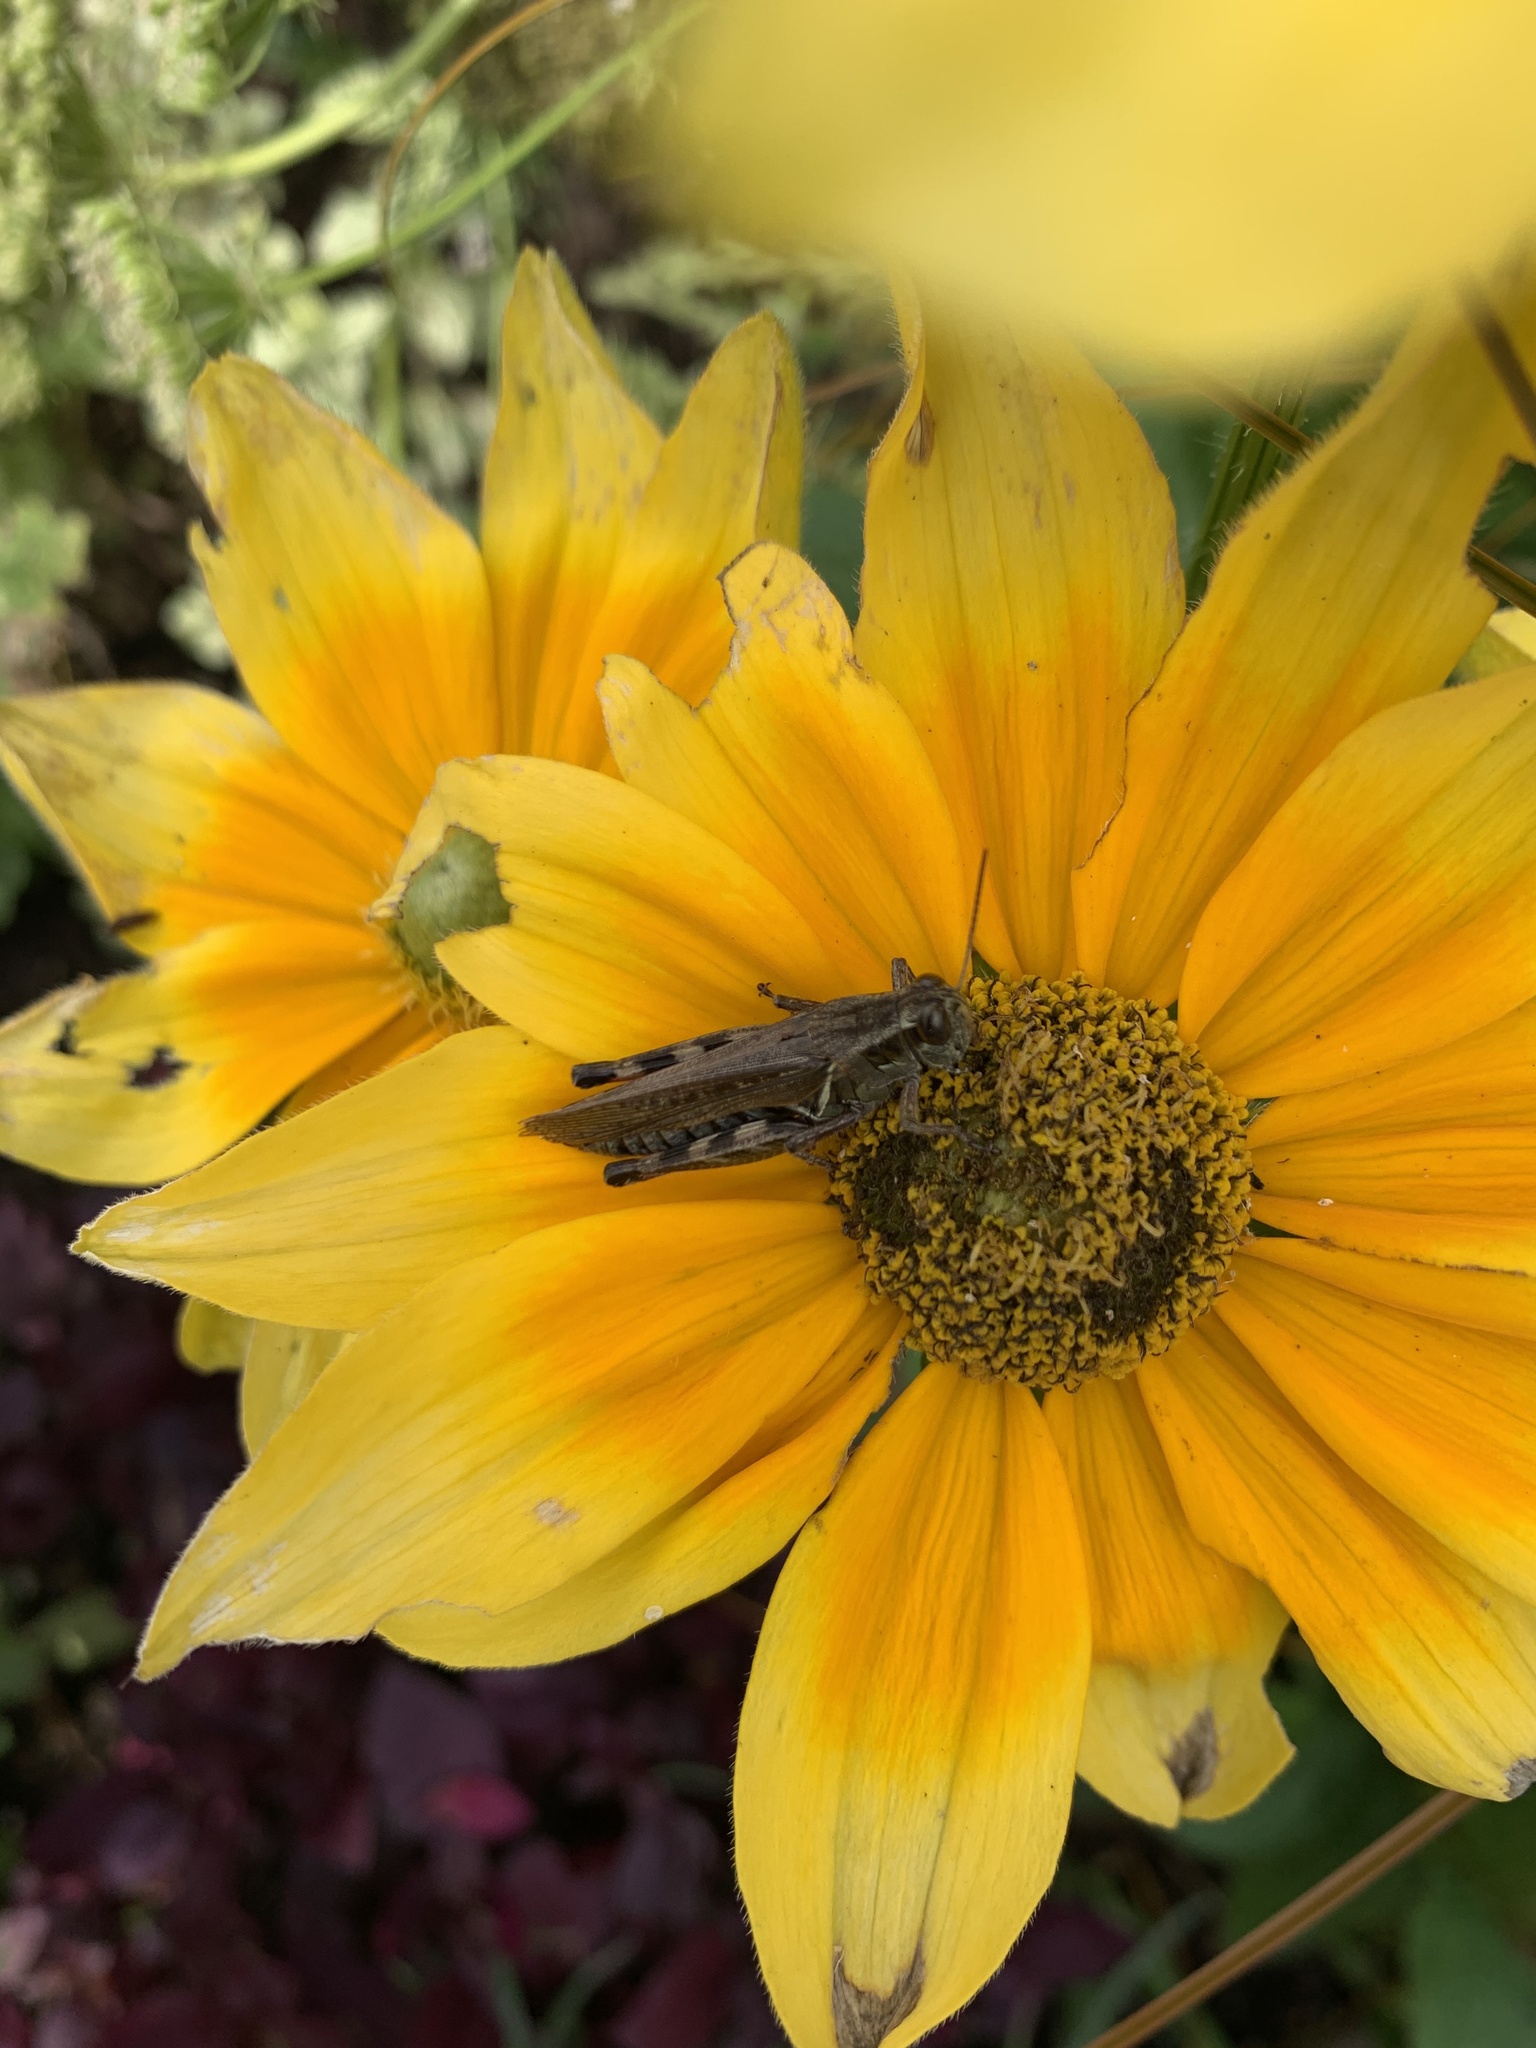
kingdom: Animalia
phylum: Arthropoda
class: Insecta
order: Orthoptera
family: Acrididae
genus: Melanoplus
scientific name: Melanoplus femurrubrum
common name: Red-legged grasshopper
